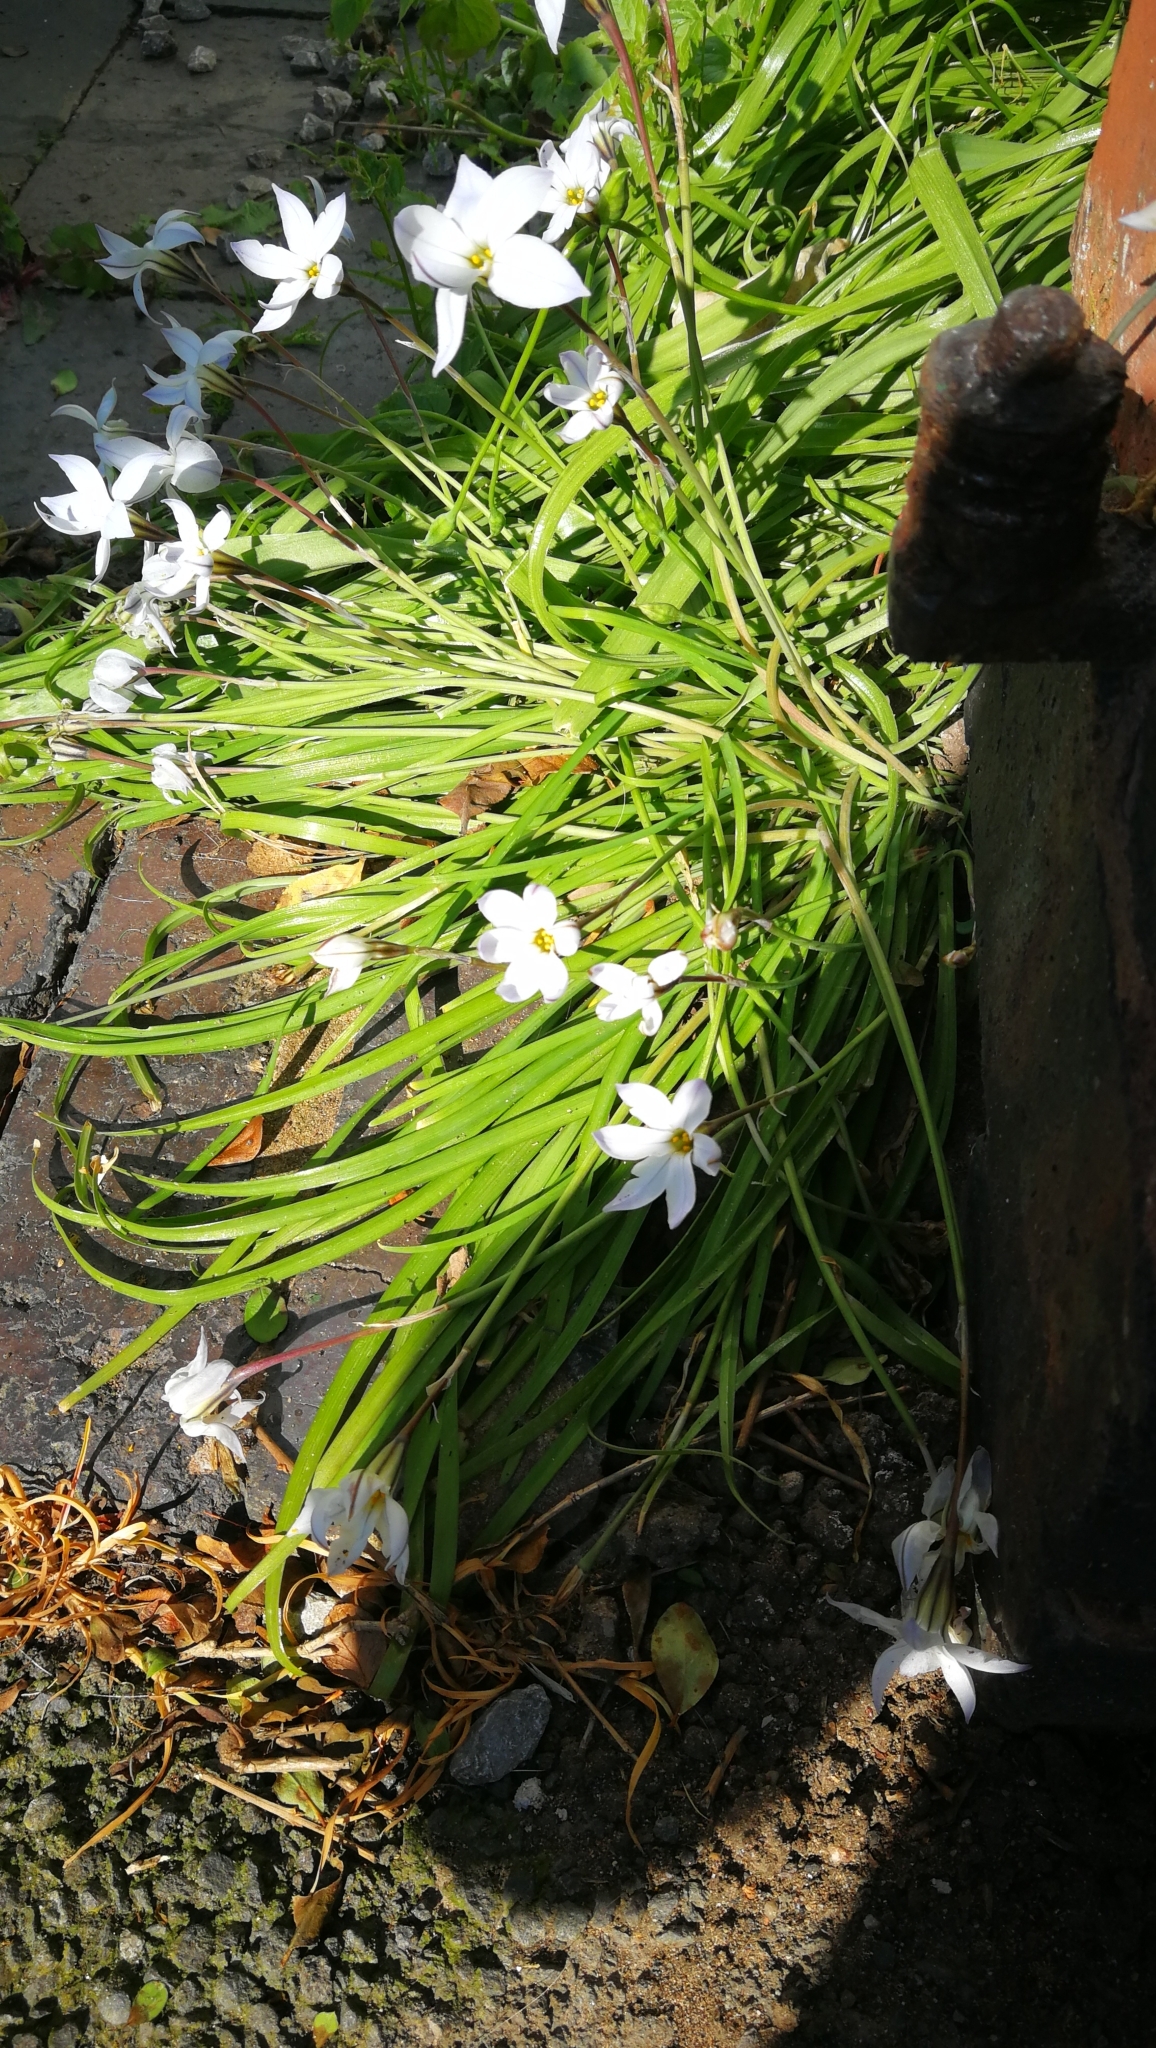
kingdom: Plantae
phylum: Tracheophyta
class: Liliopsida
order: Asparagales
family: Amaryllidaceae
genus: Ipheion
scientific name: Ipheion uniflorum
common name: Spring starflower
